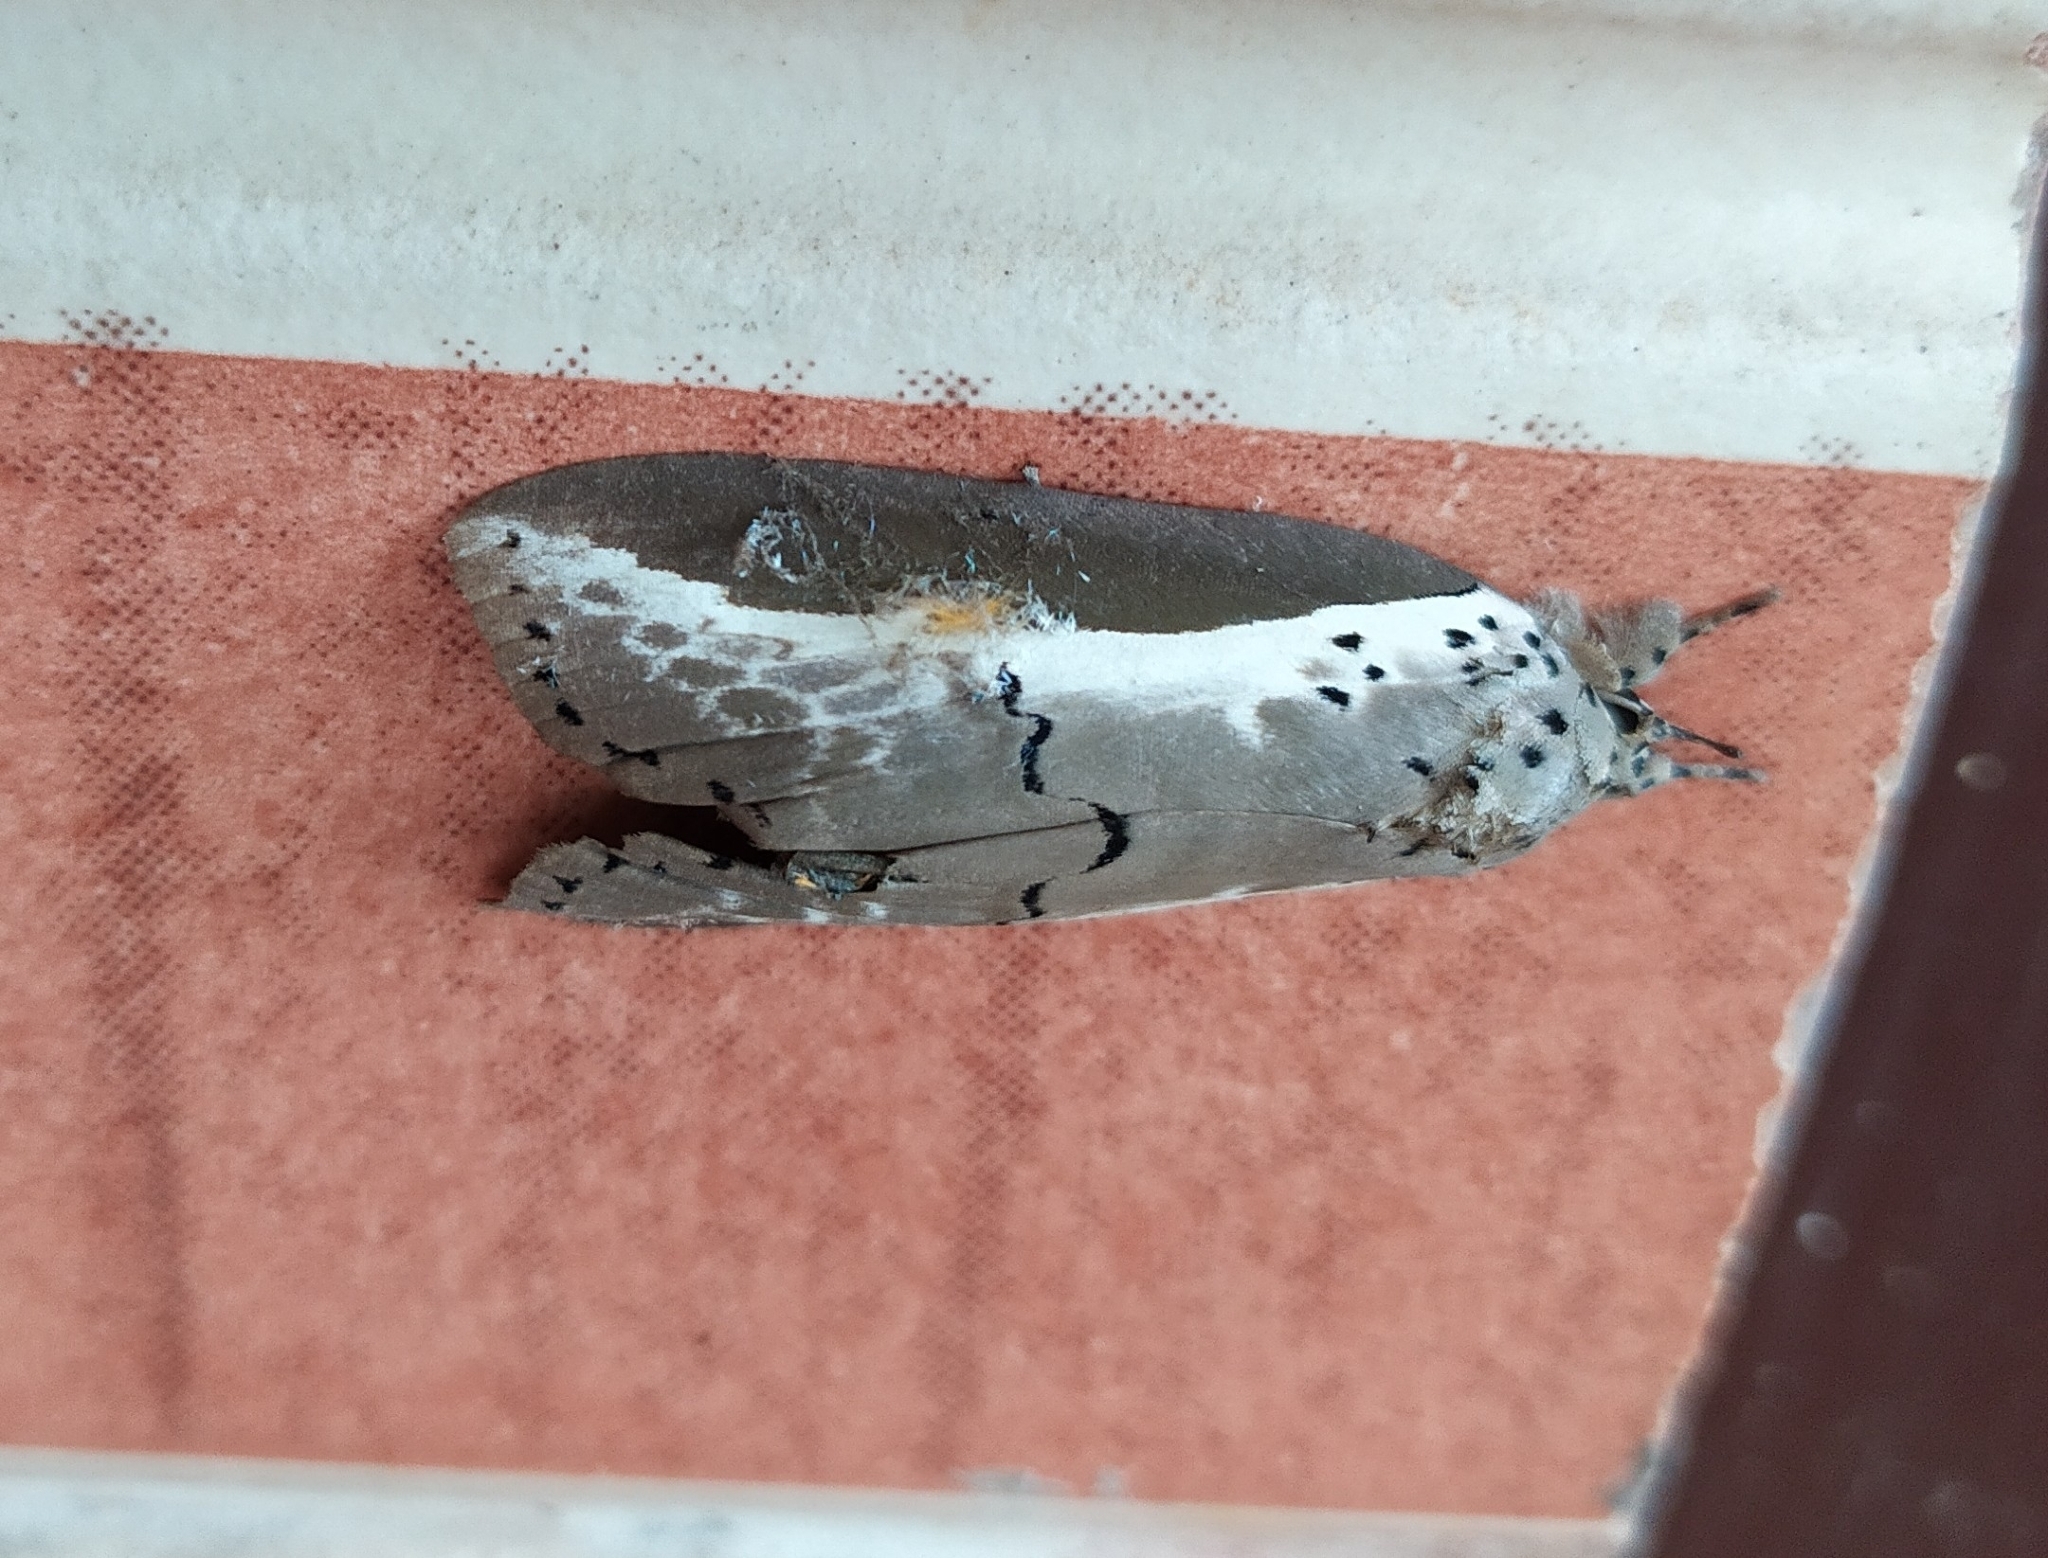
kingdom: Animalia
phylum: Arthropoda
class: Insecta
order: Lepidoptera
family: Nolidae
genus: Eligma
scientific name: Eligma narcissus
